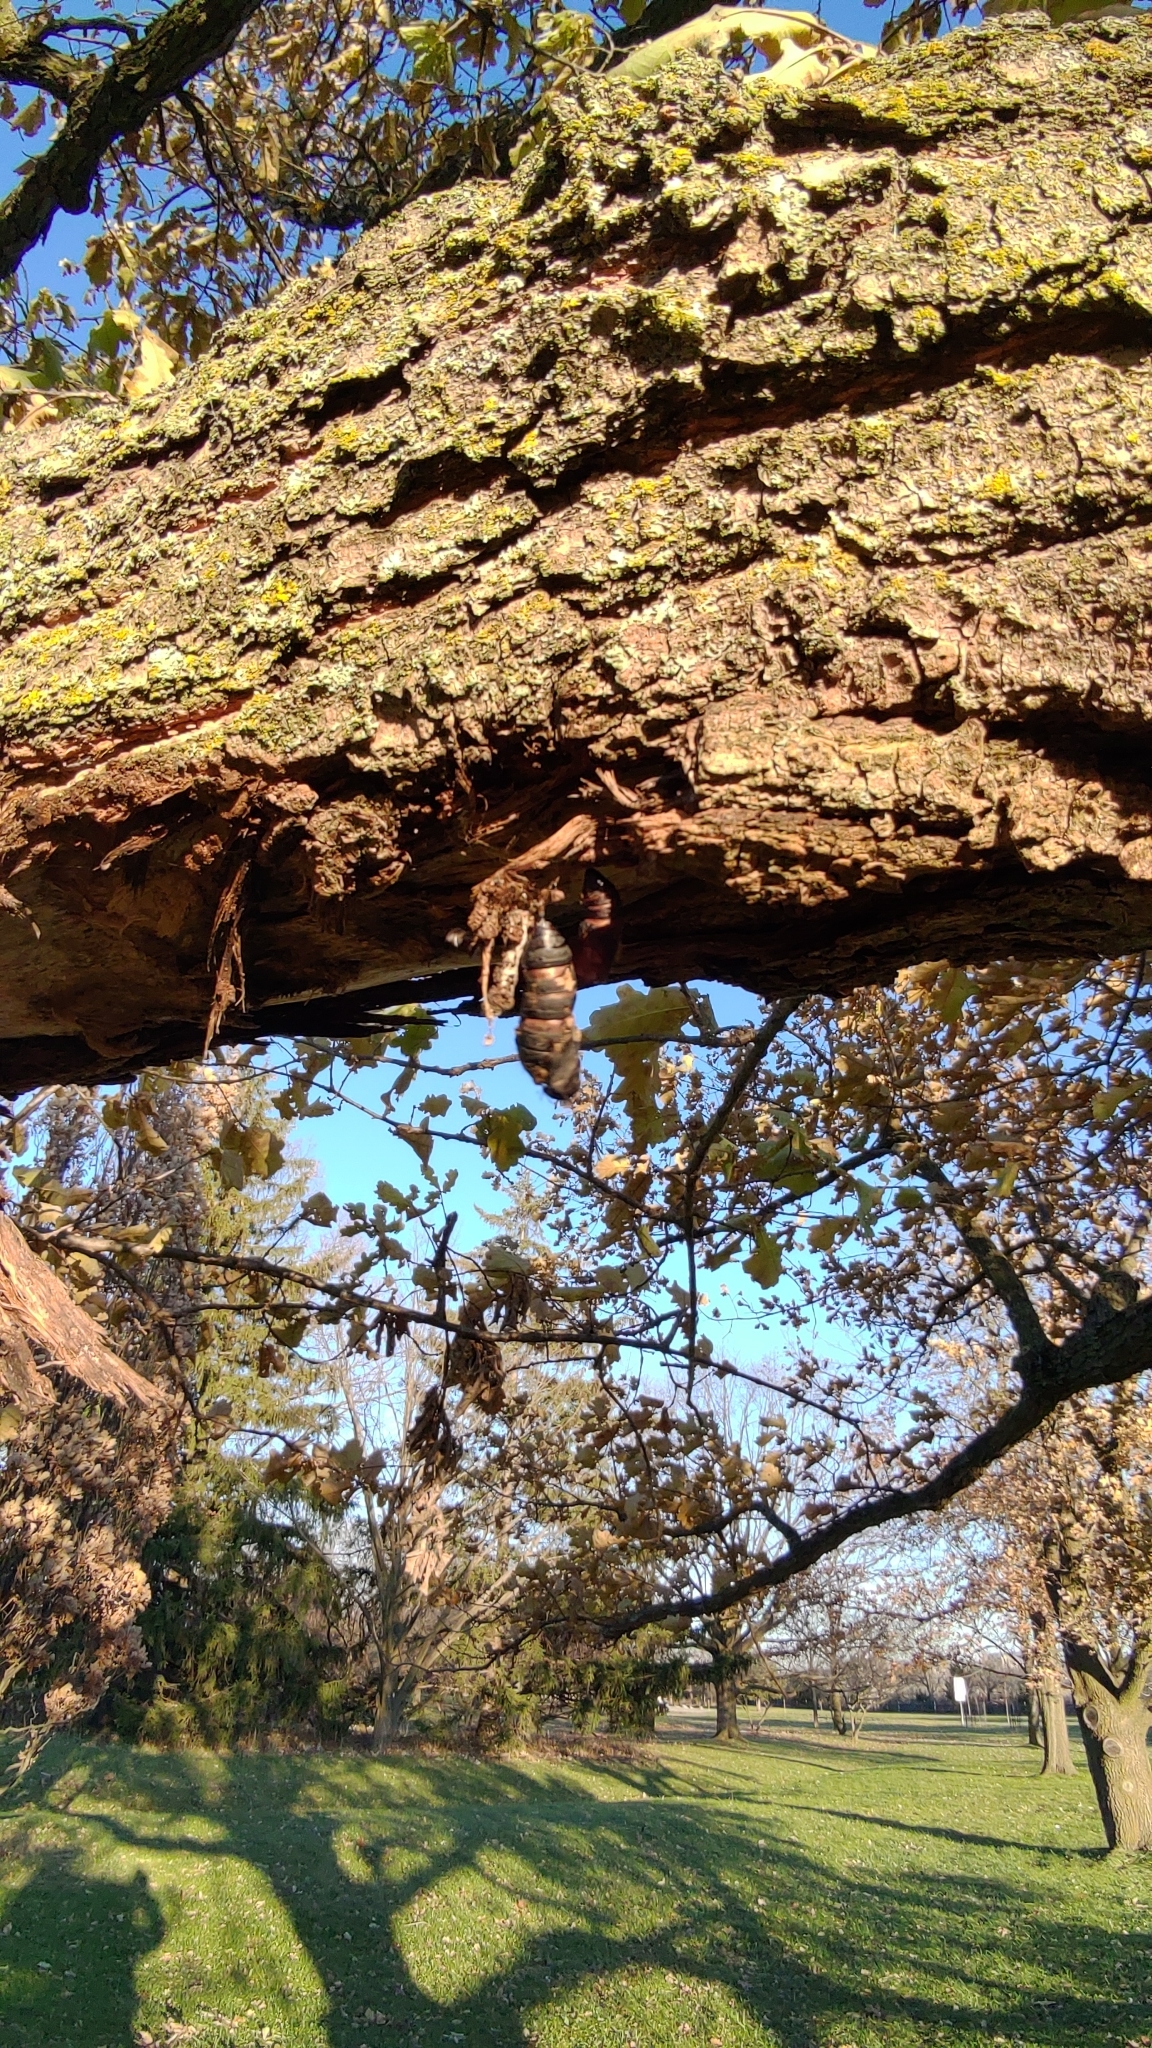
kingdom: Animalia
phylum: Arthropoda
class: Insecta
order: Lepidoptera
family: Erebidae
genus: Lymantria
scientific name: Lymantria dispar
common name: Gypsy moth
